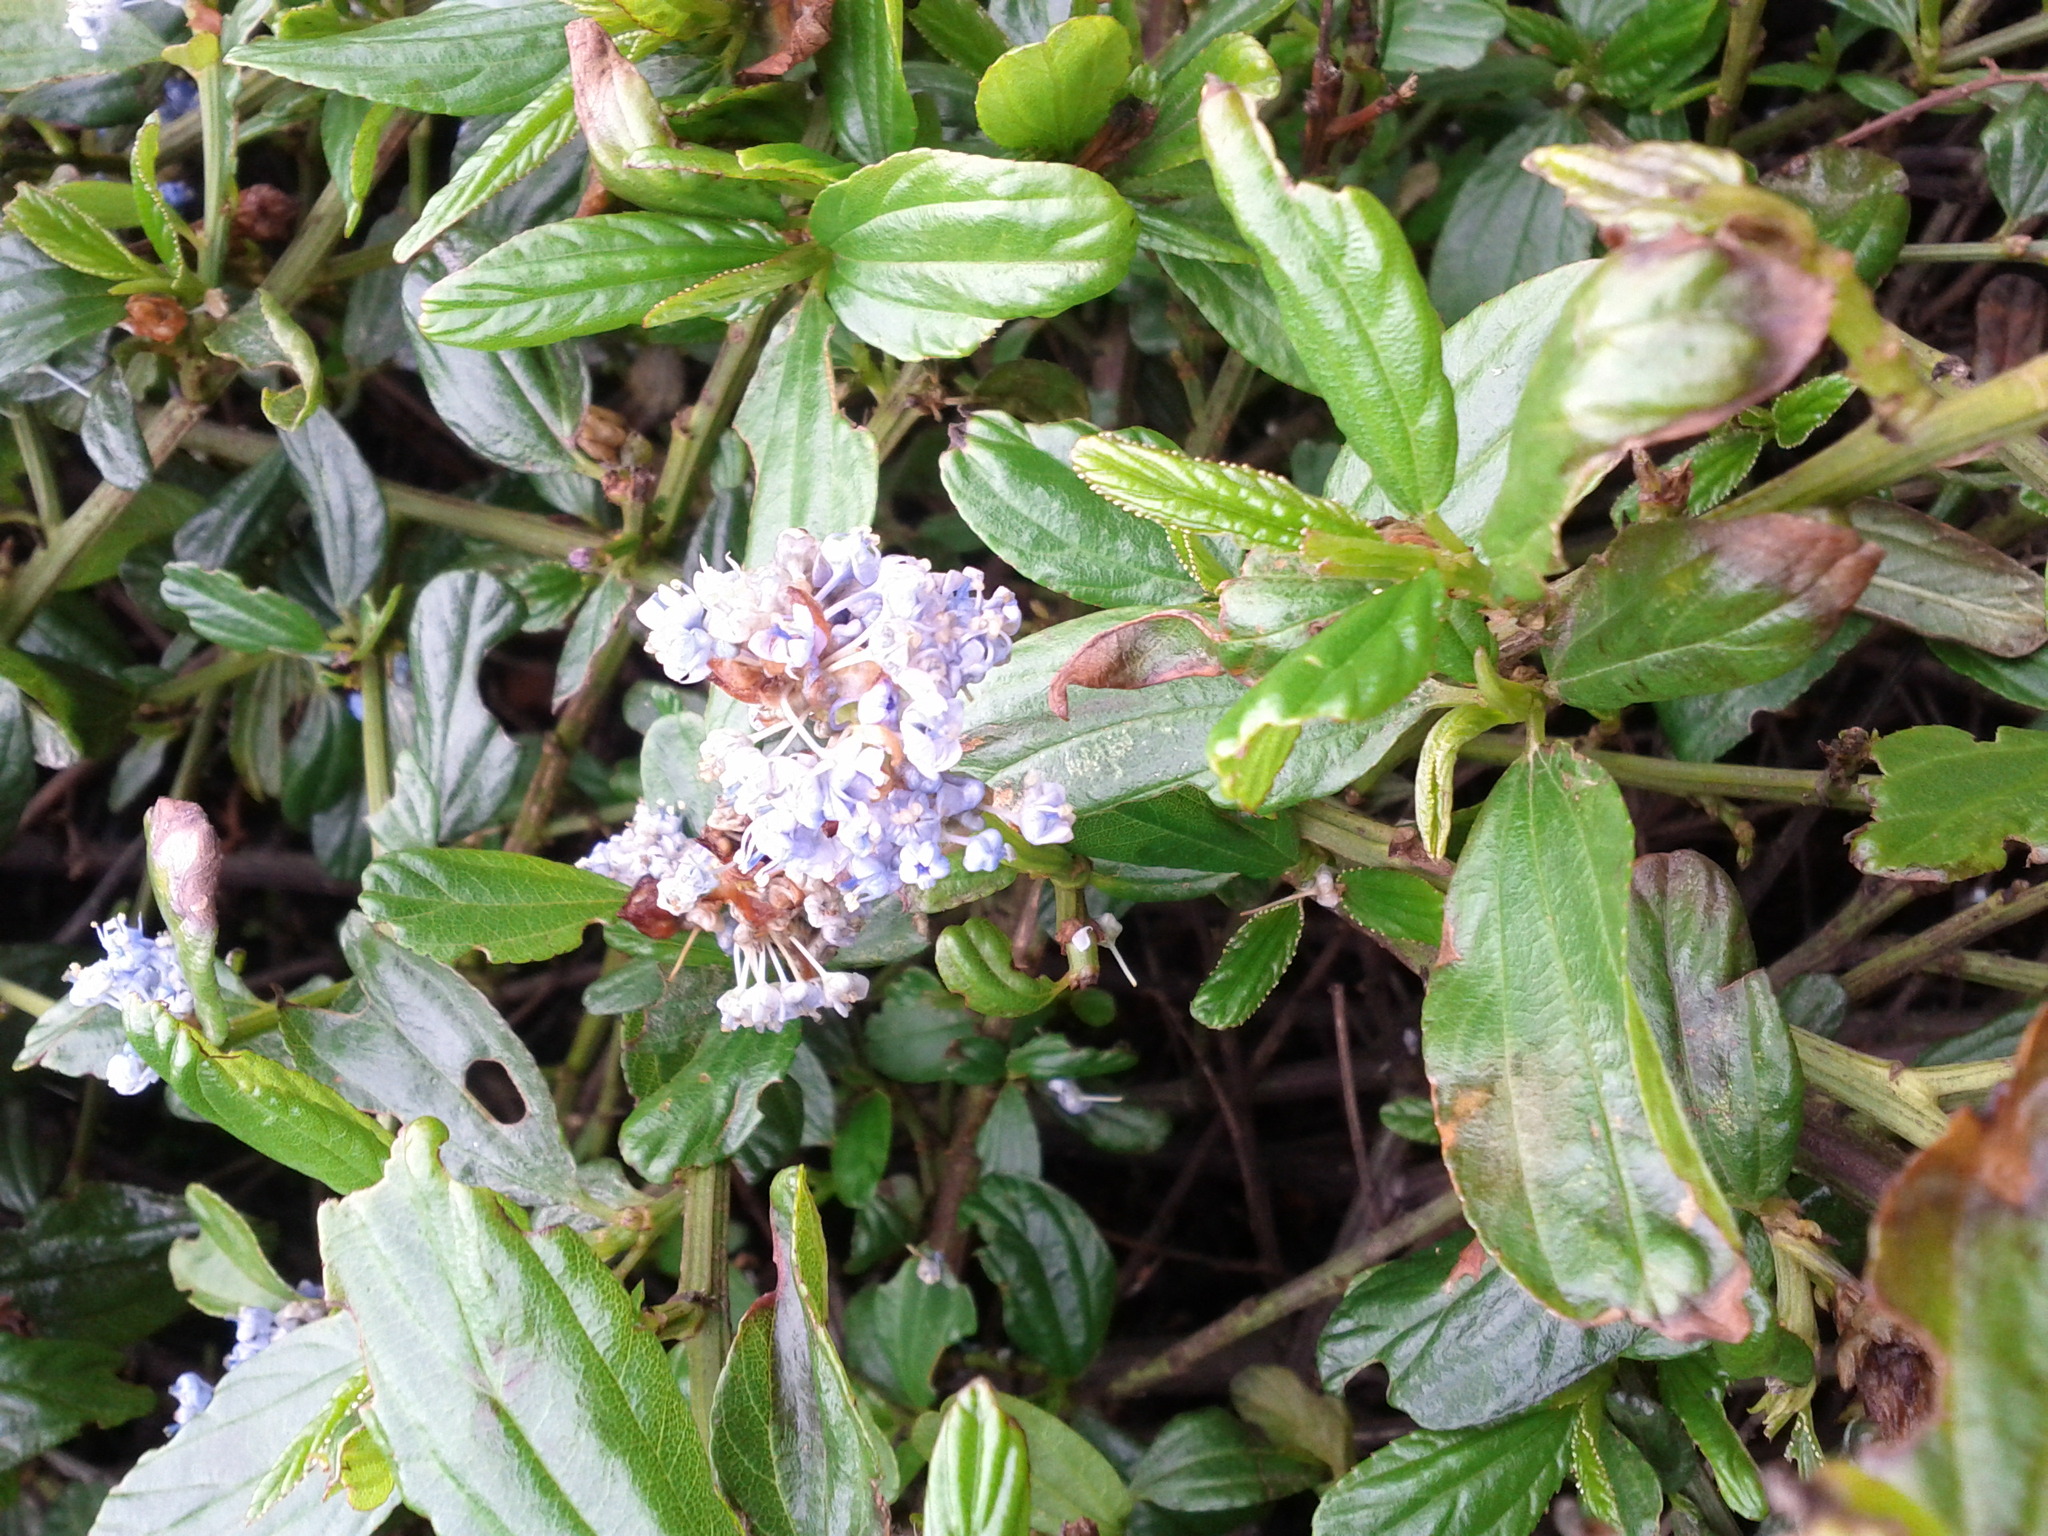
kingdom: Plantae
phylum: Tracheophyta
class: Magnoliopsida
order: Rosales
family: Rhamnaceae
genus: Ceanothus
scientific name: Ceanothus thyrsiflorus
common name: California-lilac
